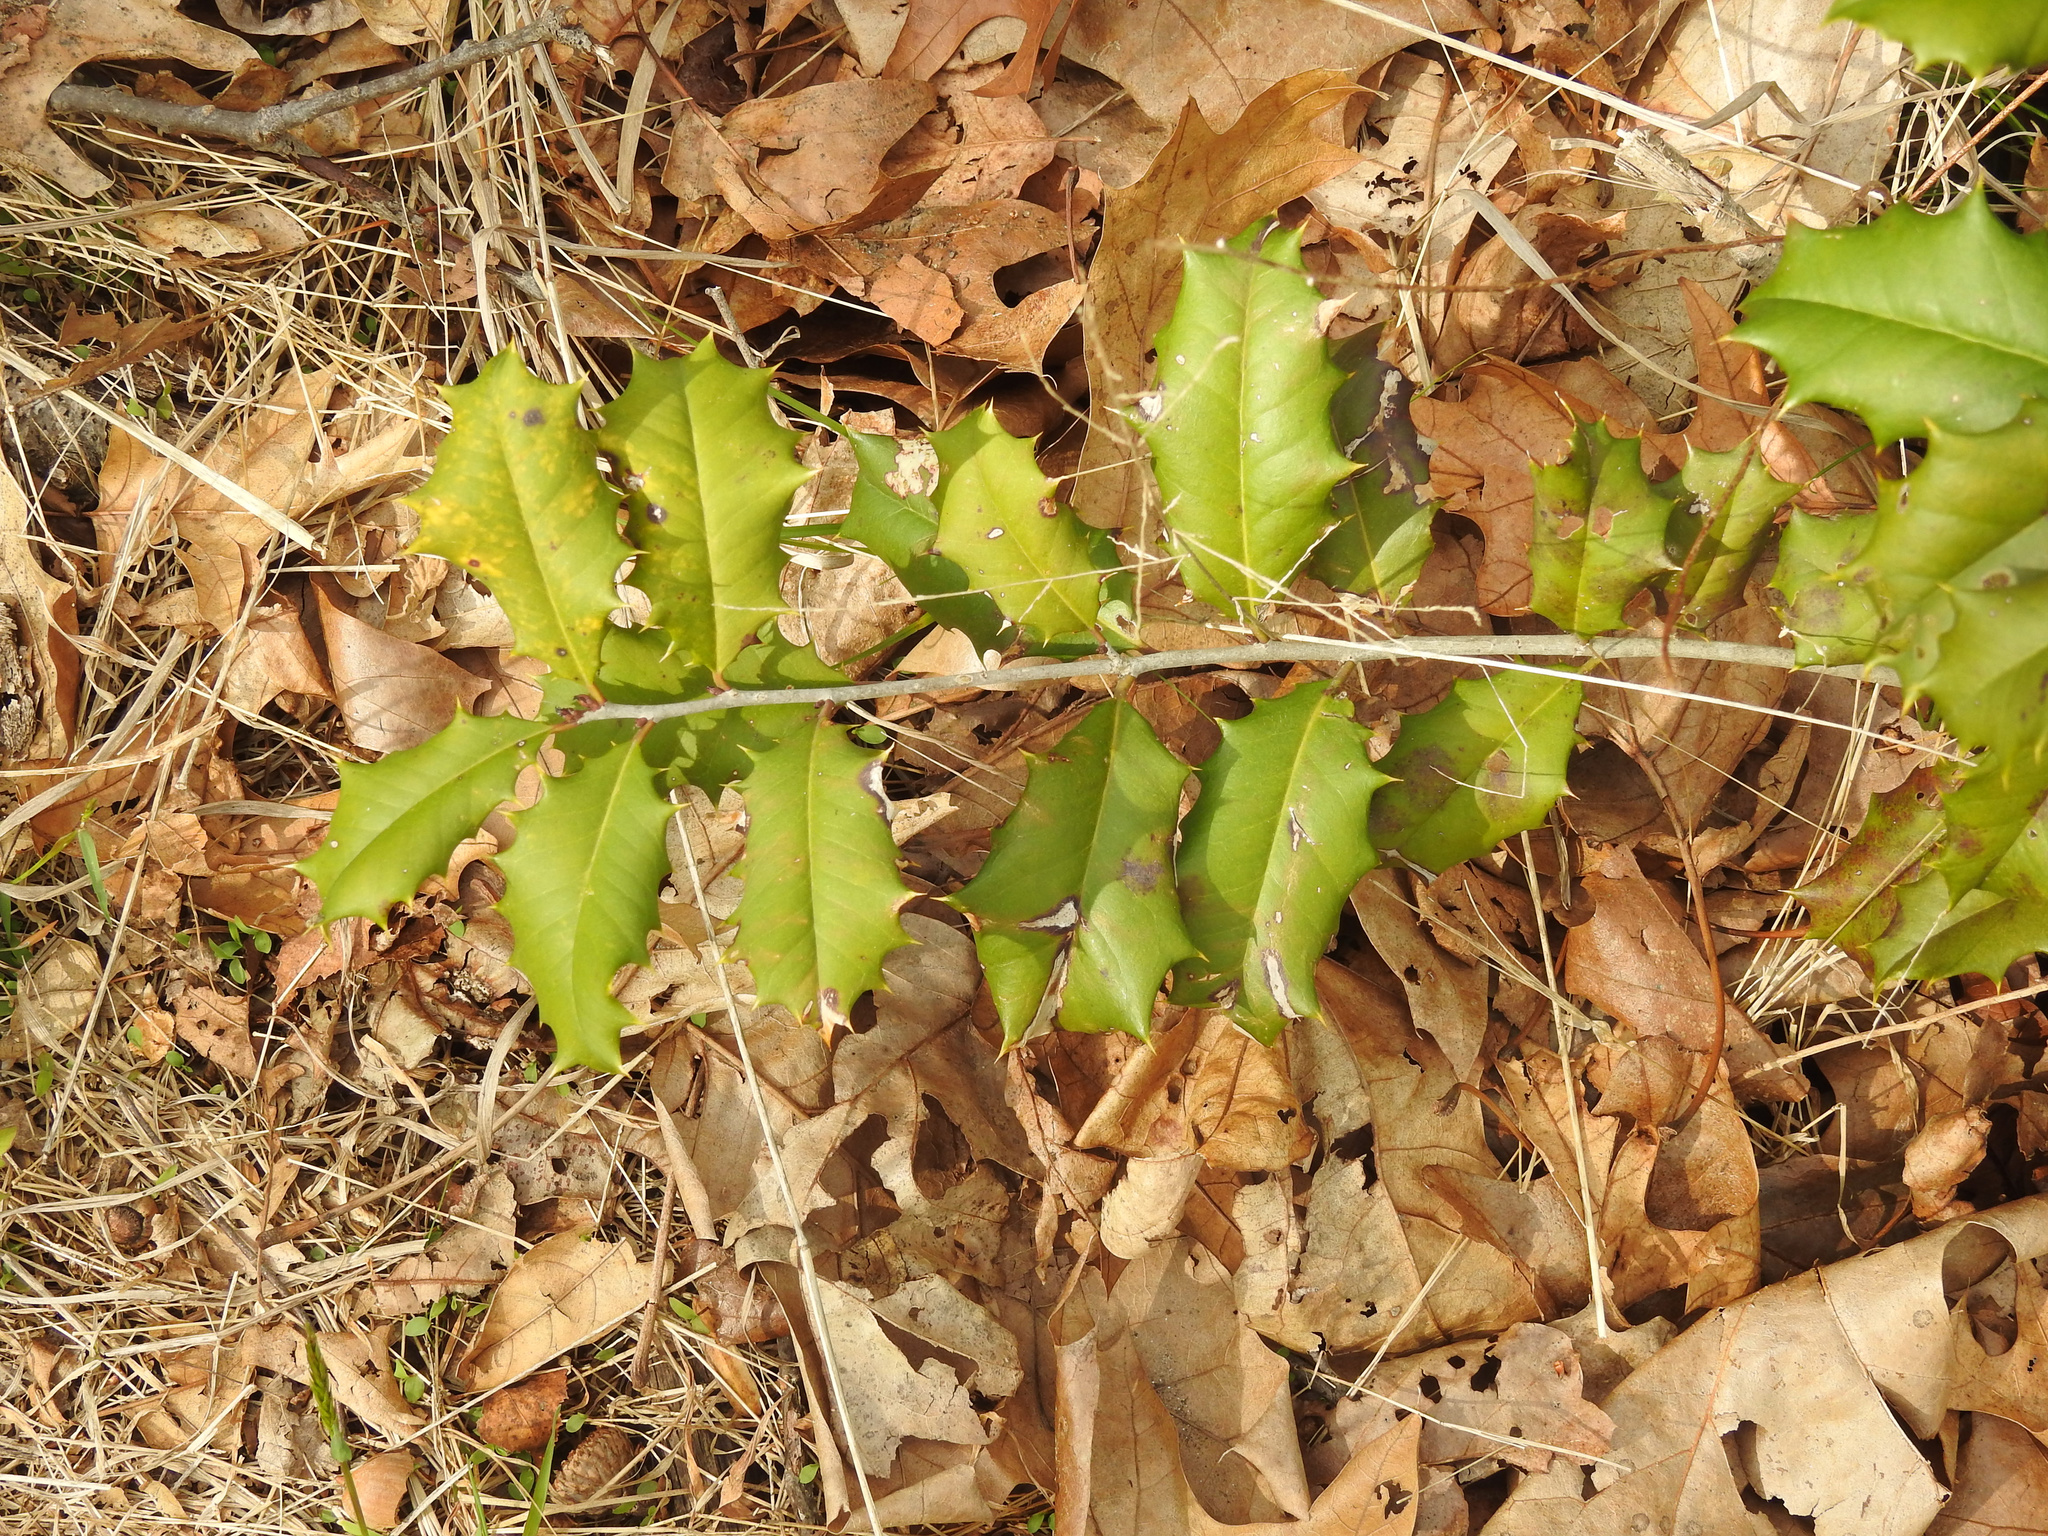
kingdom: Plantae
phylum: Tracheophyta
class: Magnoliopsida
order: Aquifoliales
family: Aquifoliaceae
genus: Ilex
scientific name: Ilex opaca
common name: American holly
